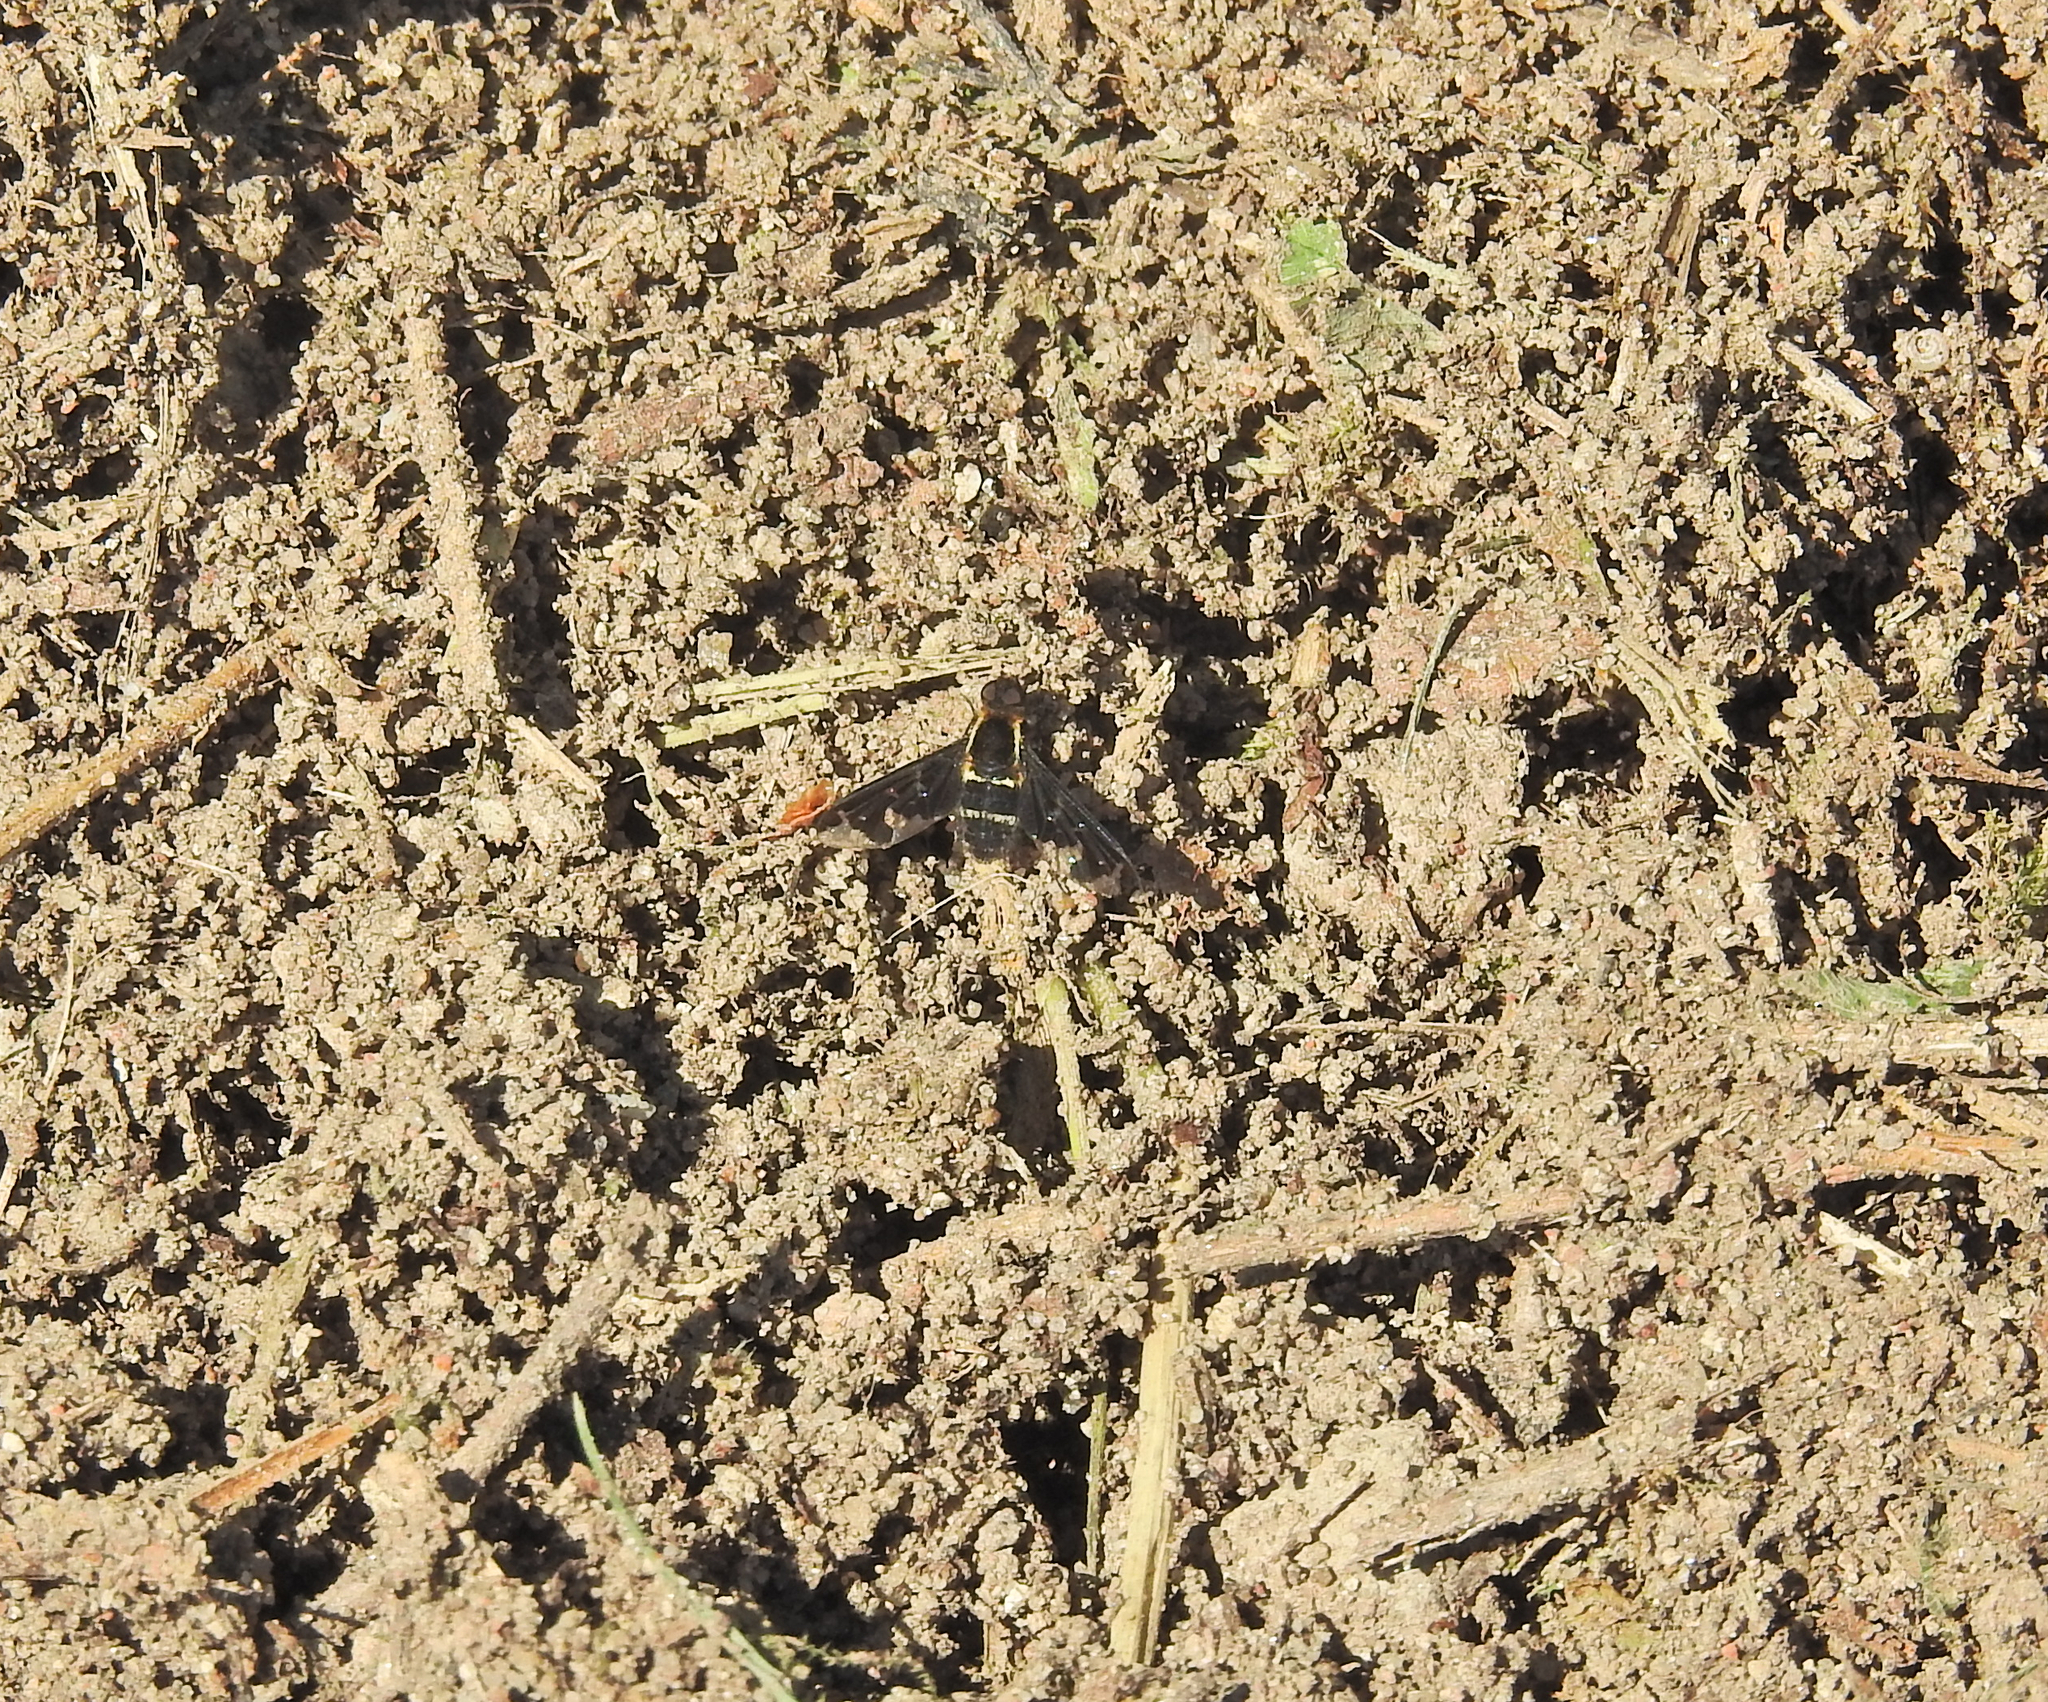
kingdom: Animalia
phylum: Arthropoda
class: Insecta
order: Diptera
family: Bombyliidae
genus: Hemipenthes
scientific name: Hemipenthes maura
